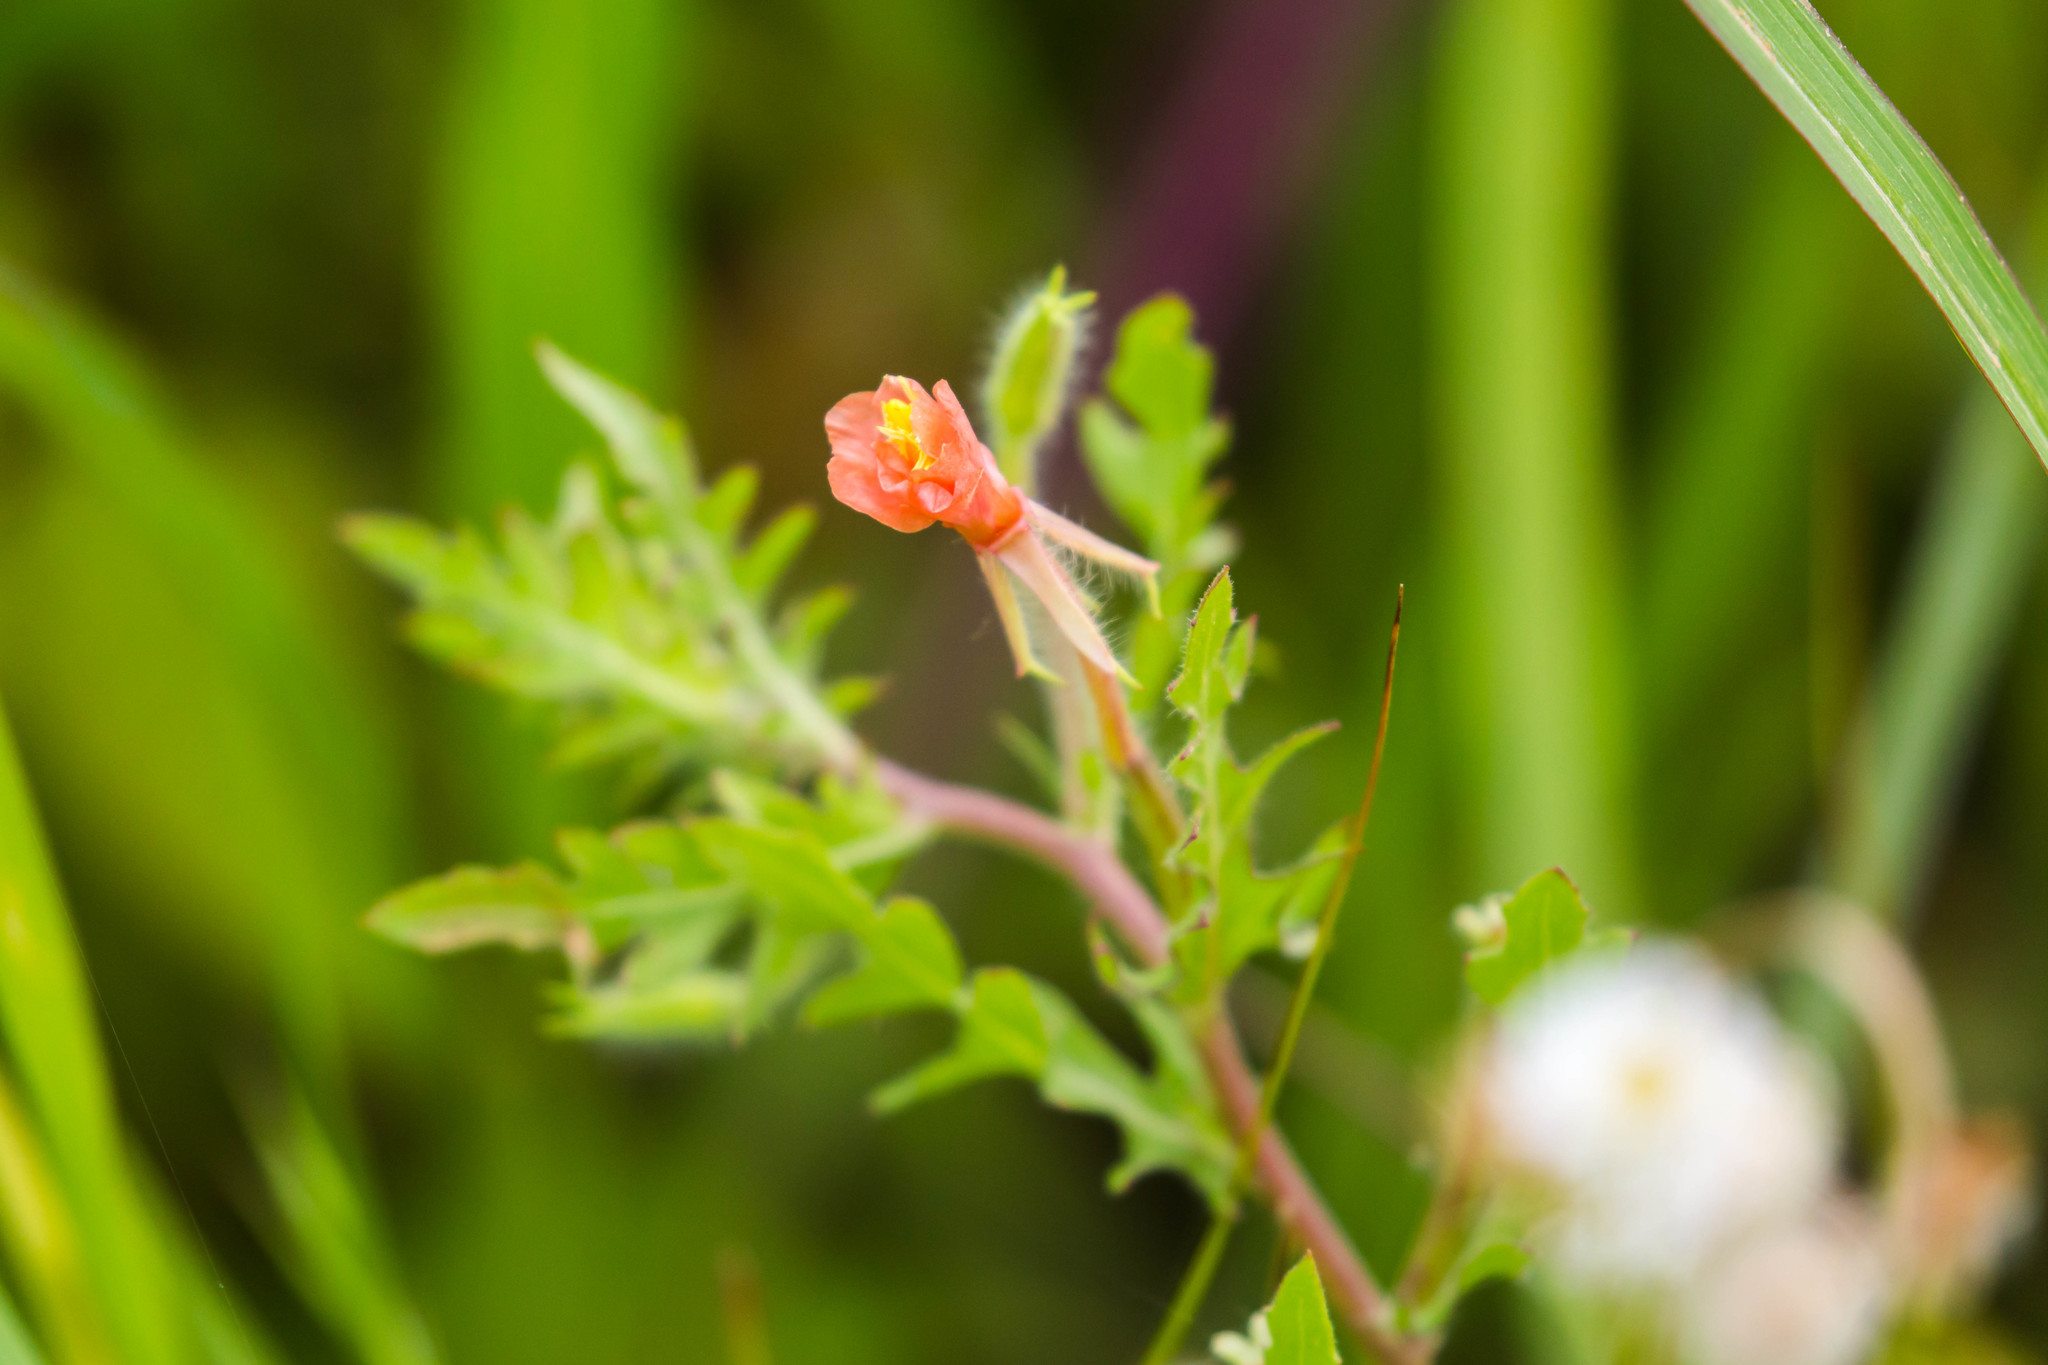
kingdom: Plantae
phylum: Tracheophyta
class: Magnoliopsida
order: Myrtales
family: Onagraceae
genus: Oenothera
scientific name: Oenothera laciniata
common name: Cut-leaved evening-primrose
